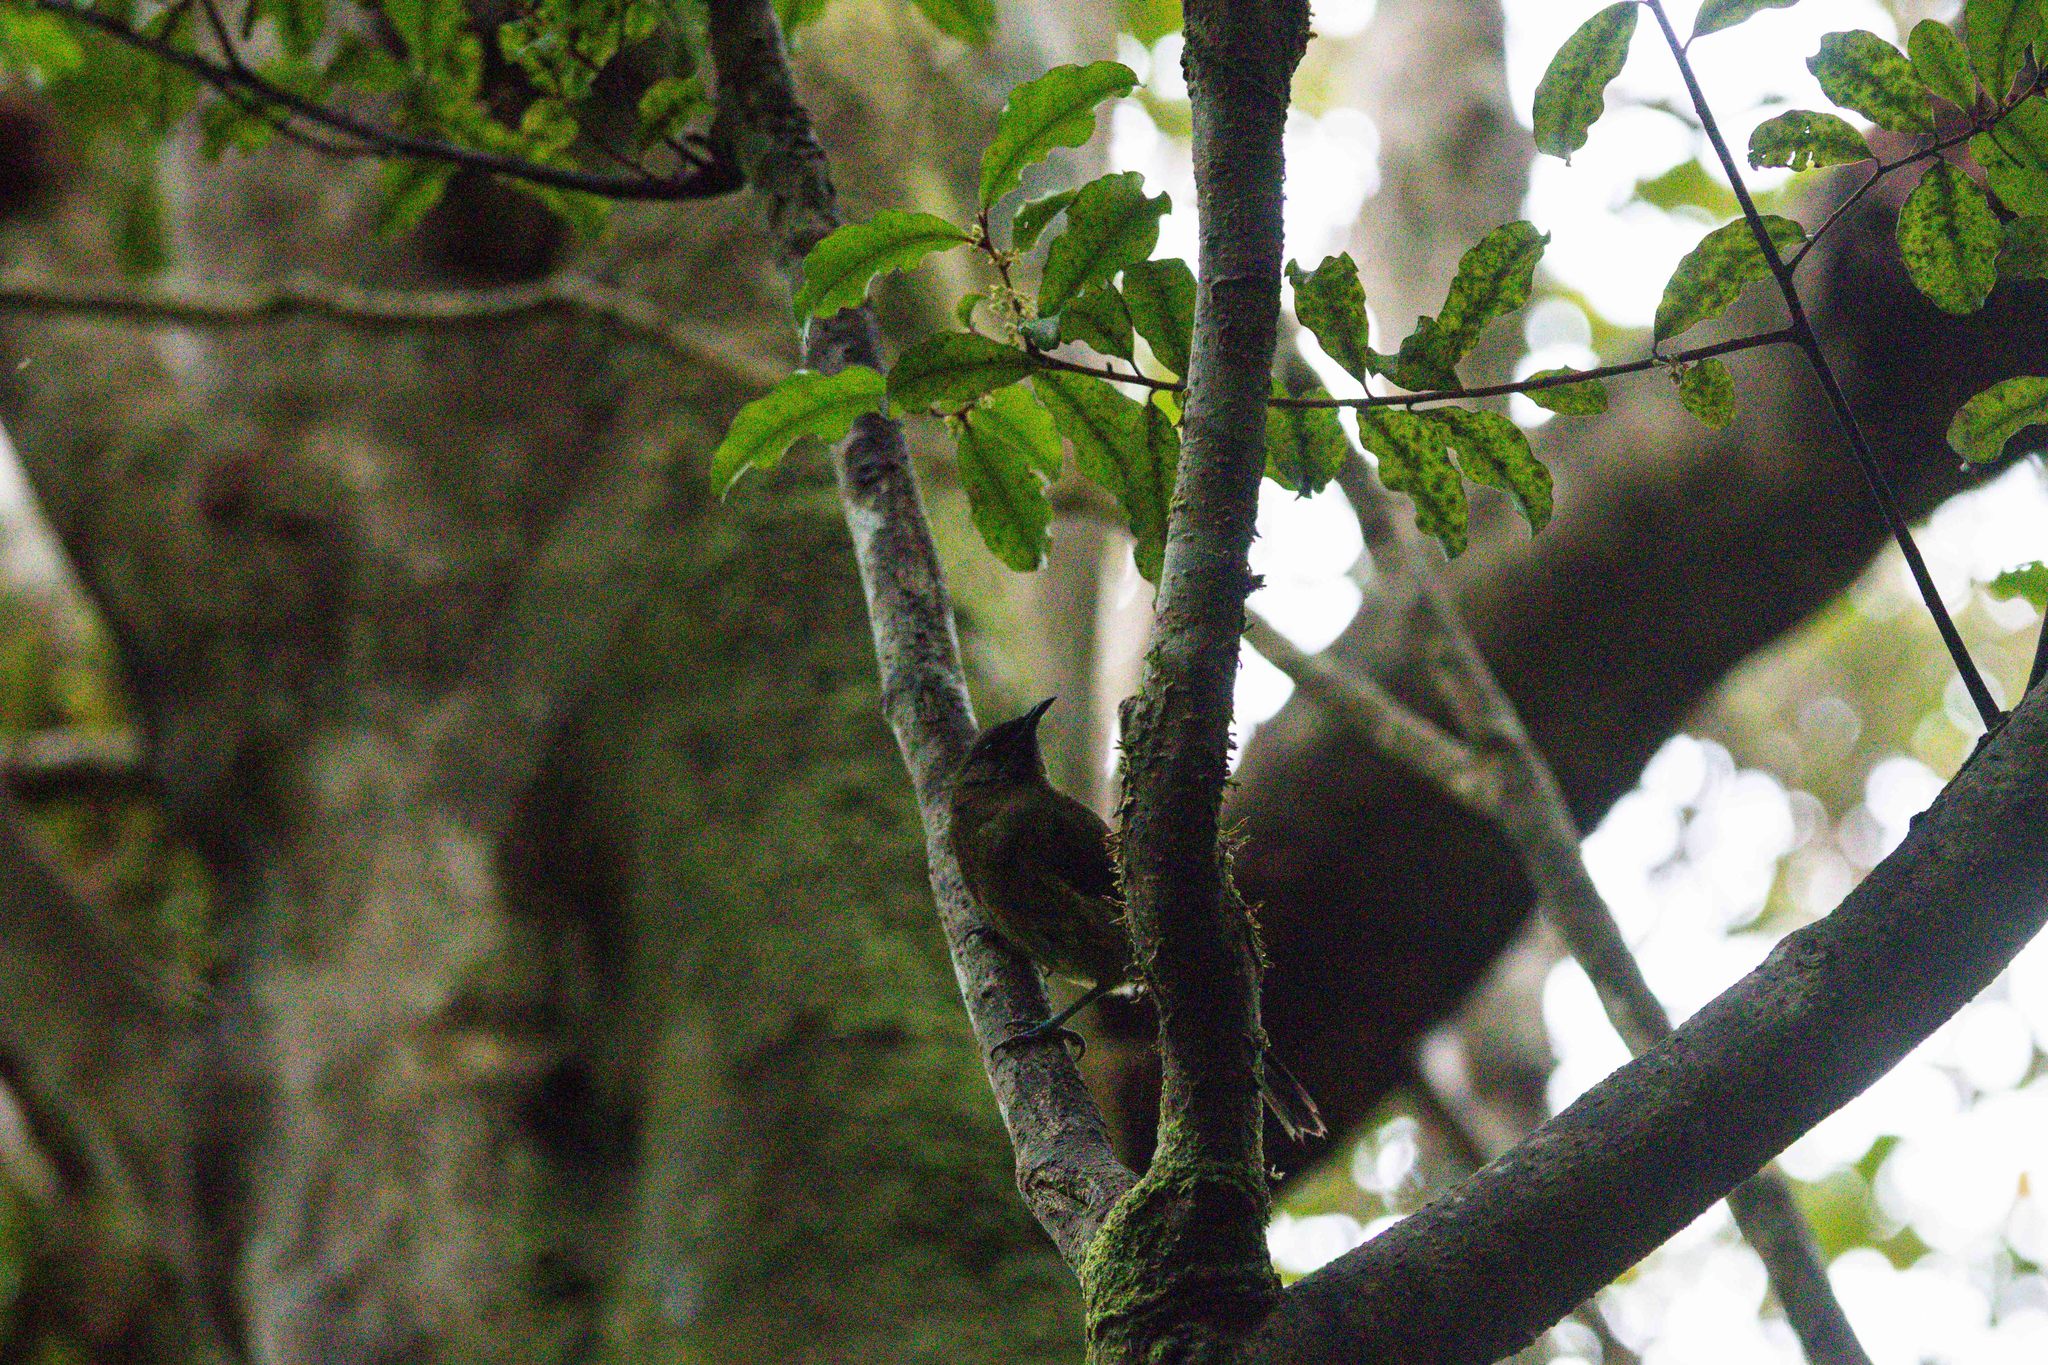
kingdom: Animalia
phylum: Chordata
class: Aves
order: Passeriformes
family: Meliphagidae
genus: Anthornis
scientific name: Anthornis melanura
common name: New zealand bellbird
